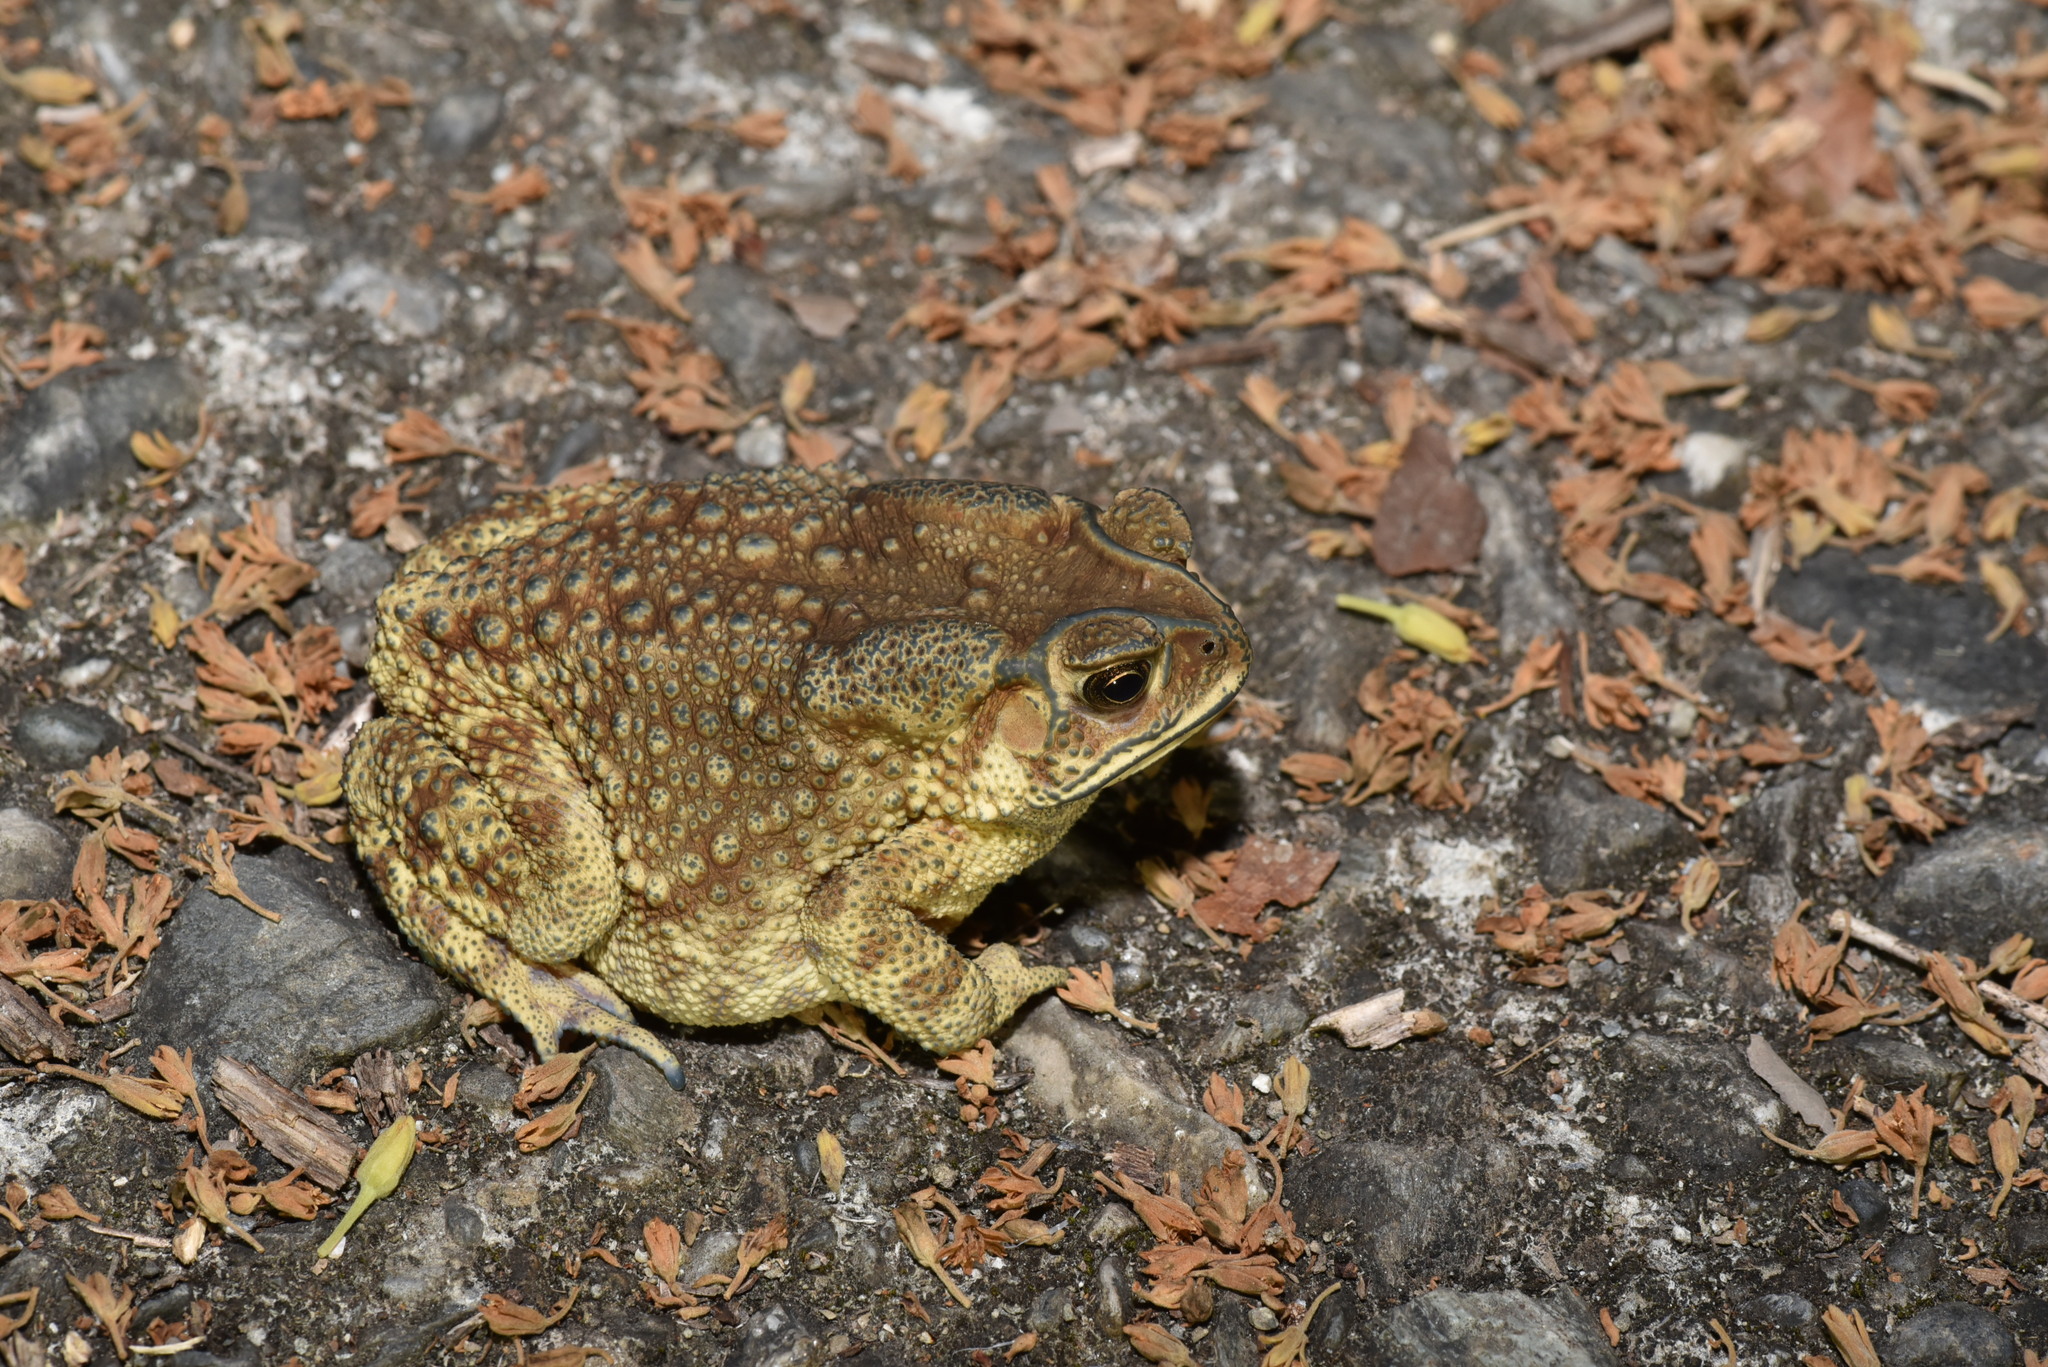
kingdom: Animalia
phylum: Chordata
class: Amphibia
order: Anura
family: Bufonidae
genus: Duttaphrynus
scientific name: Duttaphrynus melanostictus
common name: Common sunda toad
